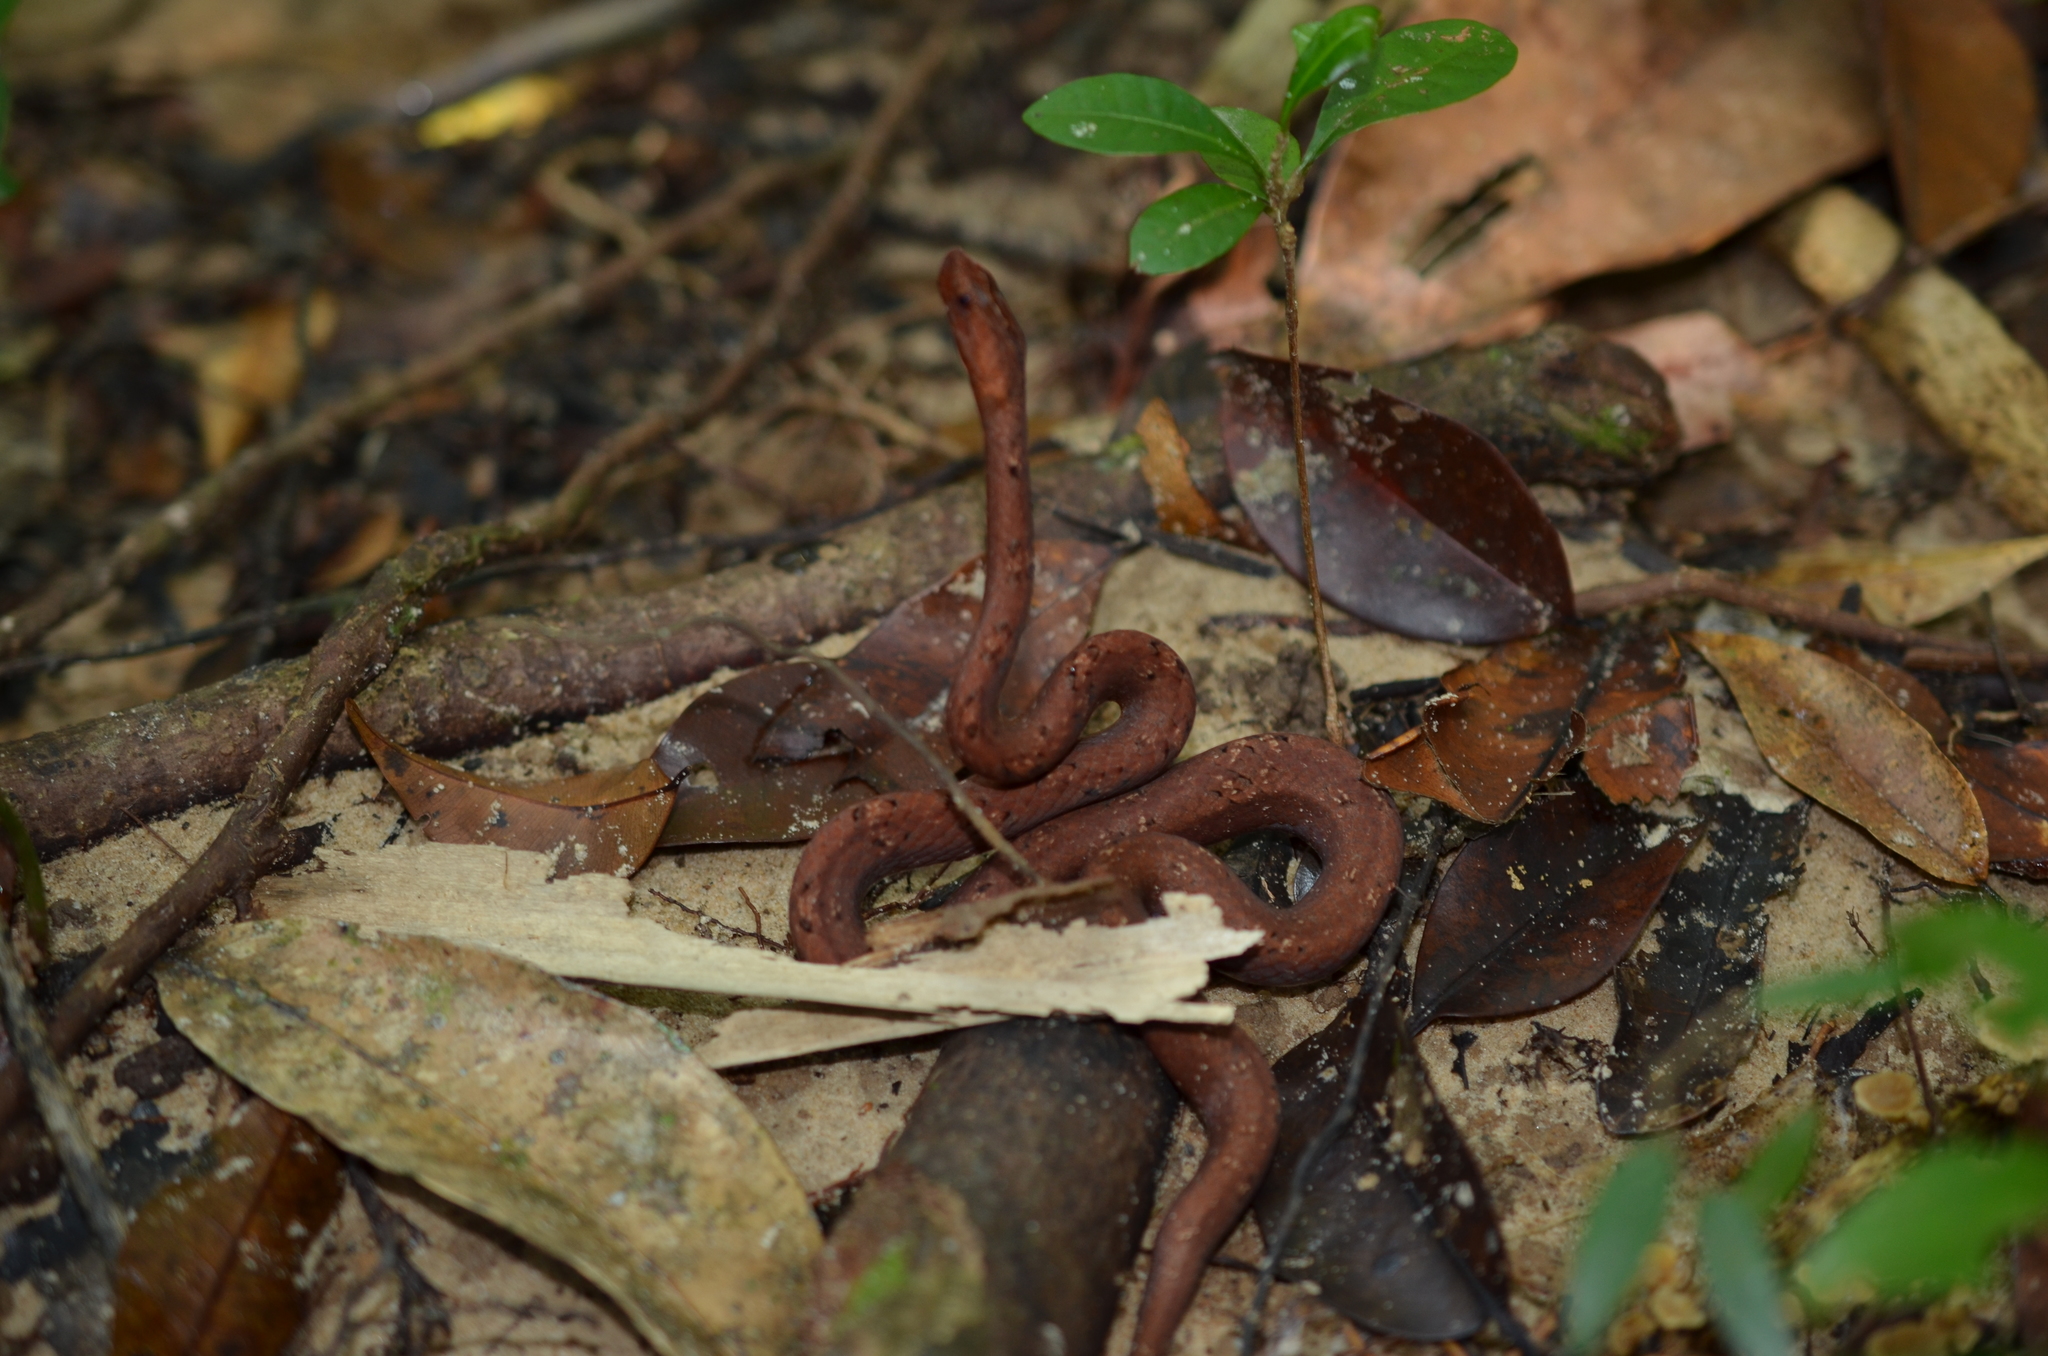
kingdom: Animalia
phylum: Chordata
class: Squamata
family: Pseudaspididae
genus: Psammodynastes
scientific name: Psammodynastes pulverulentus
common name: Common mock viper
